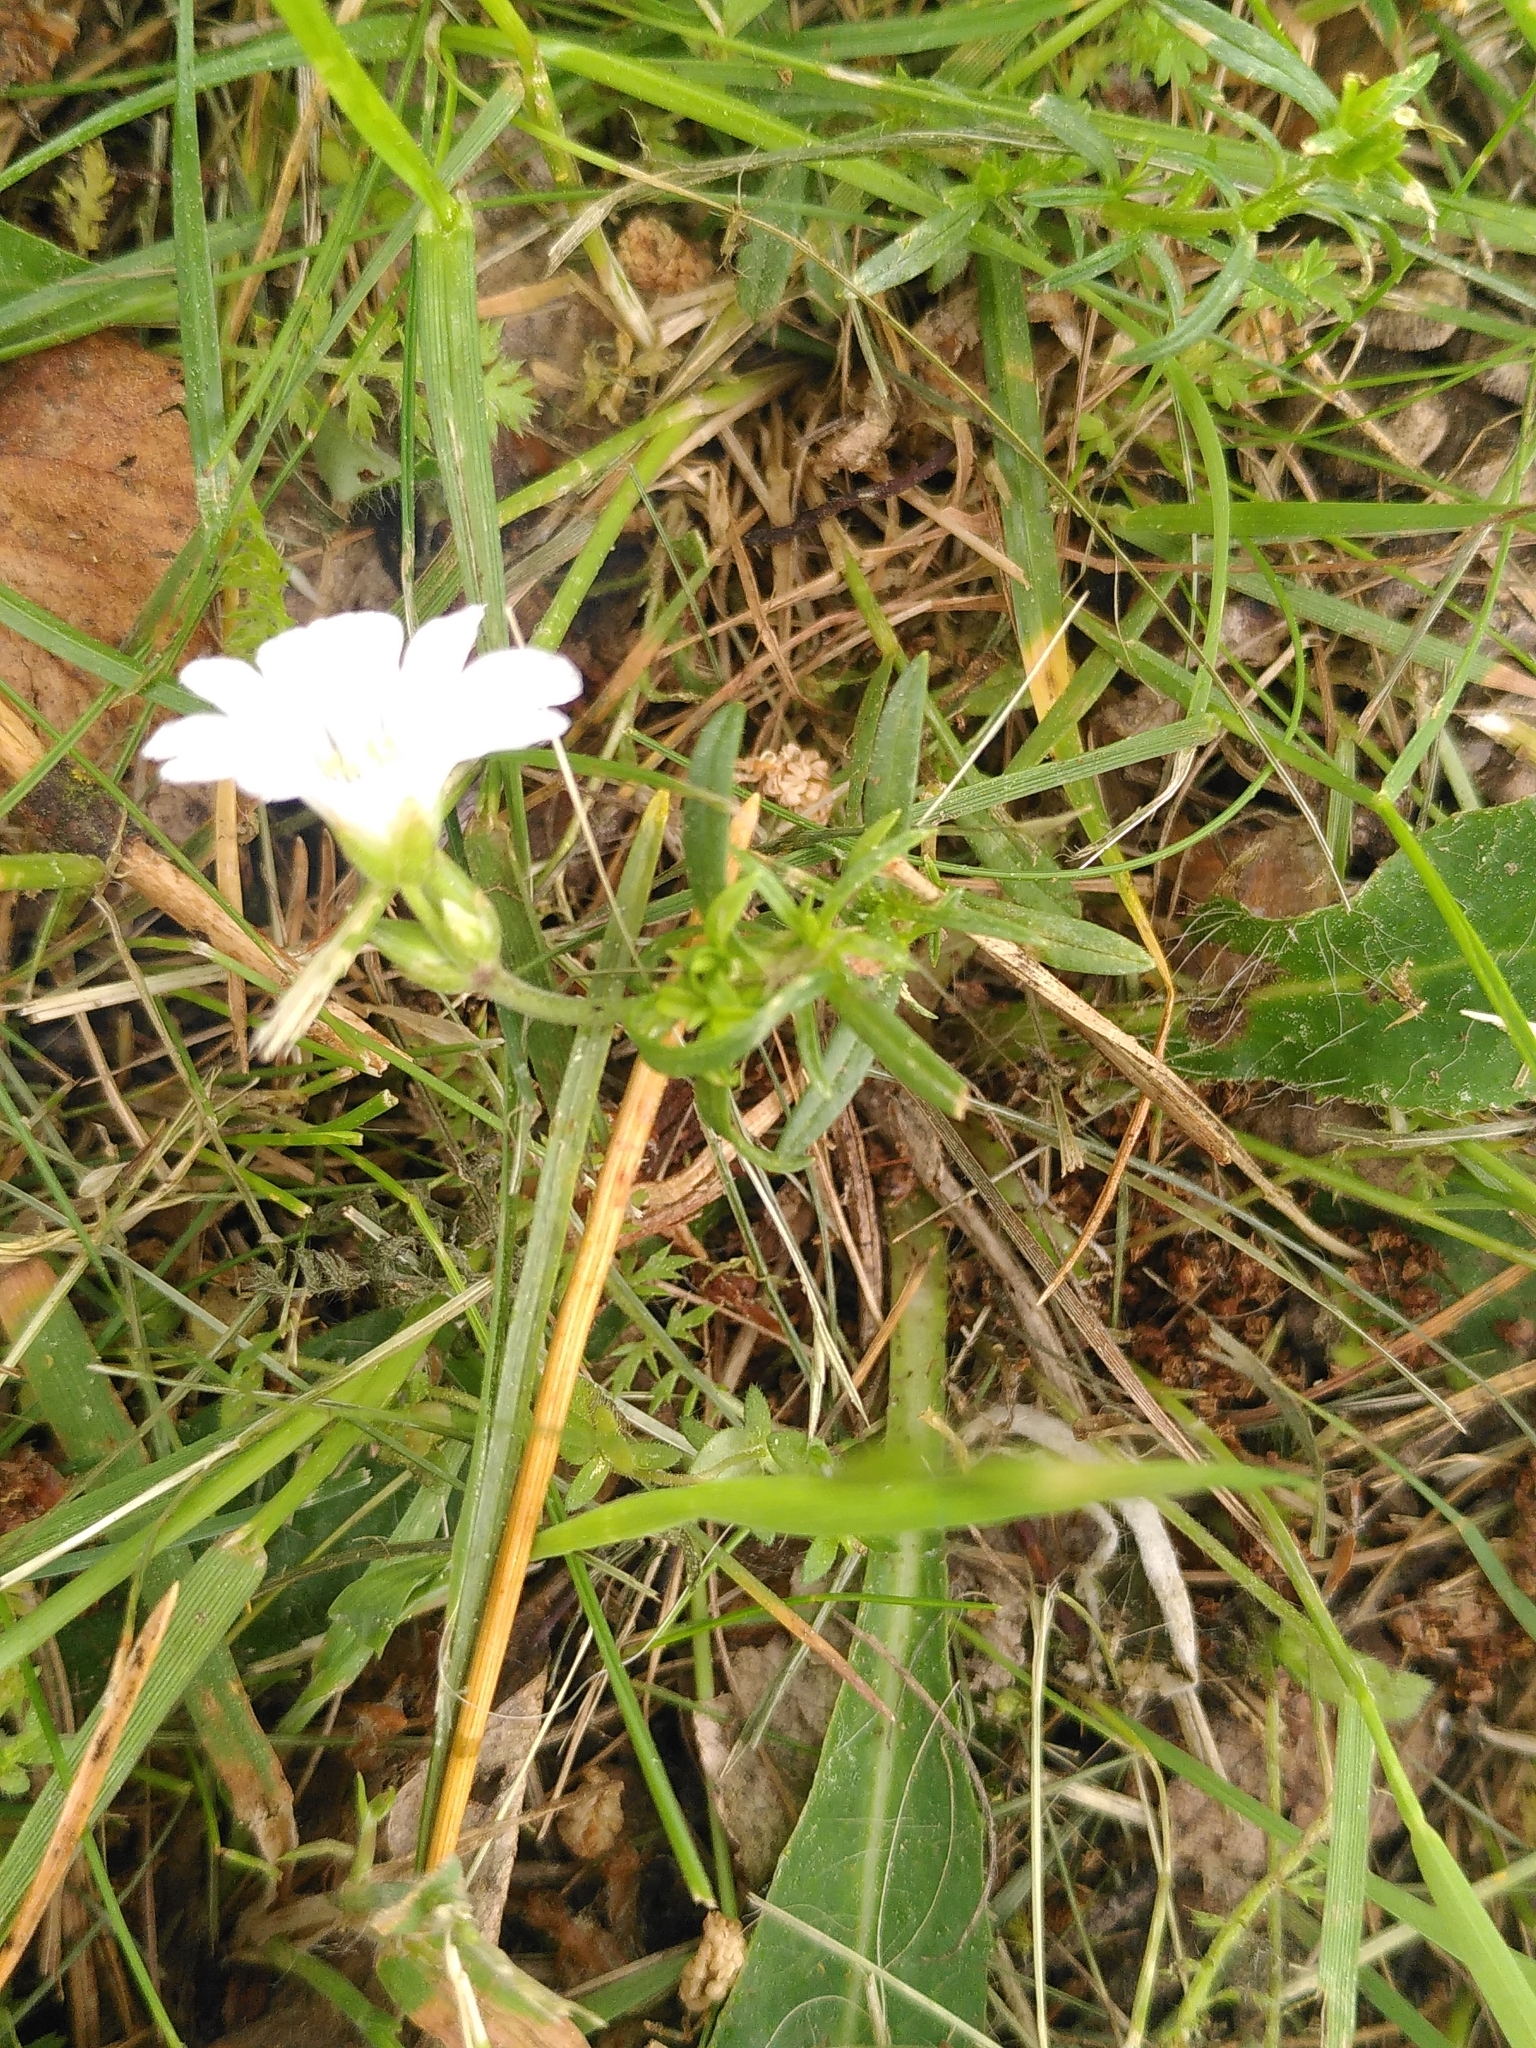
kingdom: Plantae
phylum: Tracheophyta
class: Magnoliopsida
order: Caryophyllales
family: Caryophyllaceae
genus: Cerastium
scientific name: Cerastium arvense
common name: Field mouse-ear
